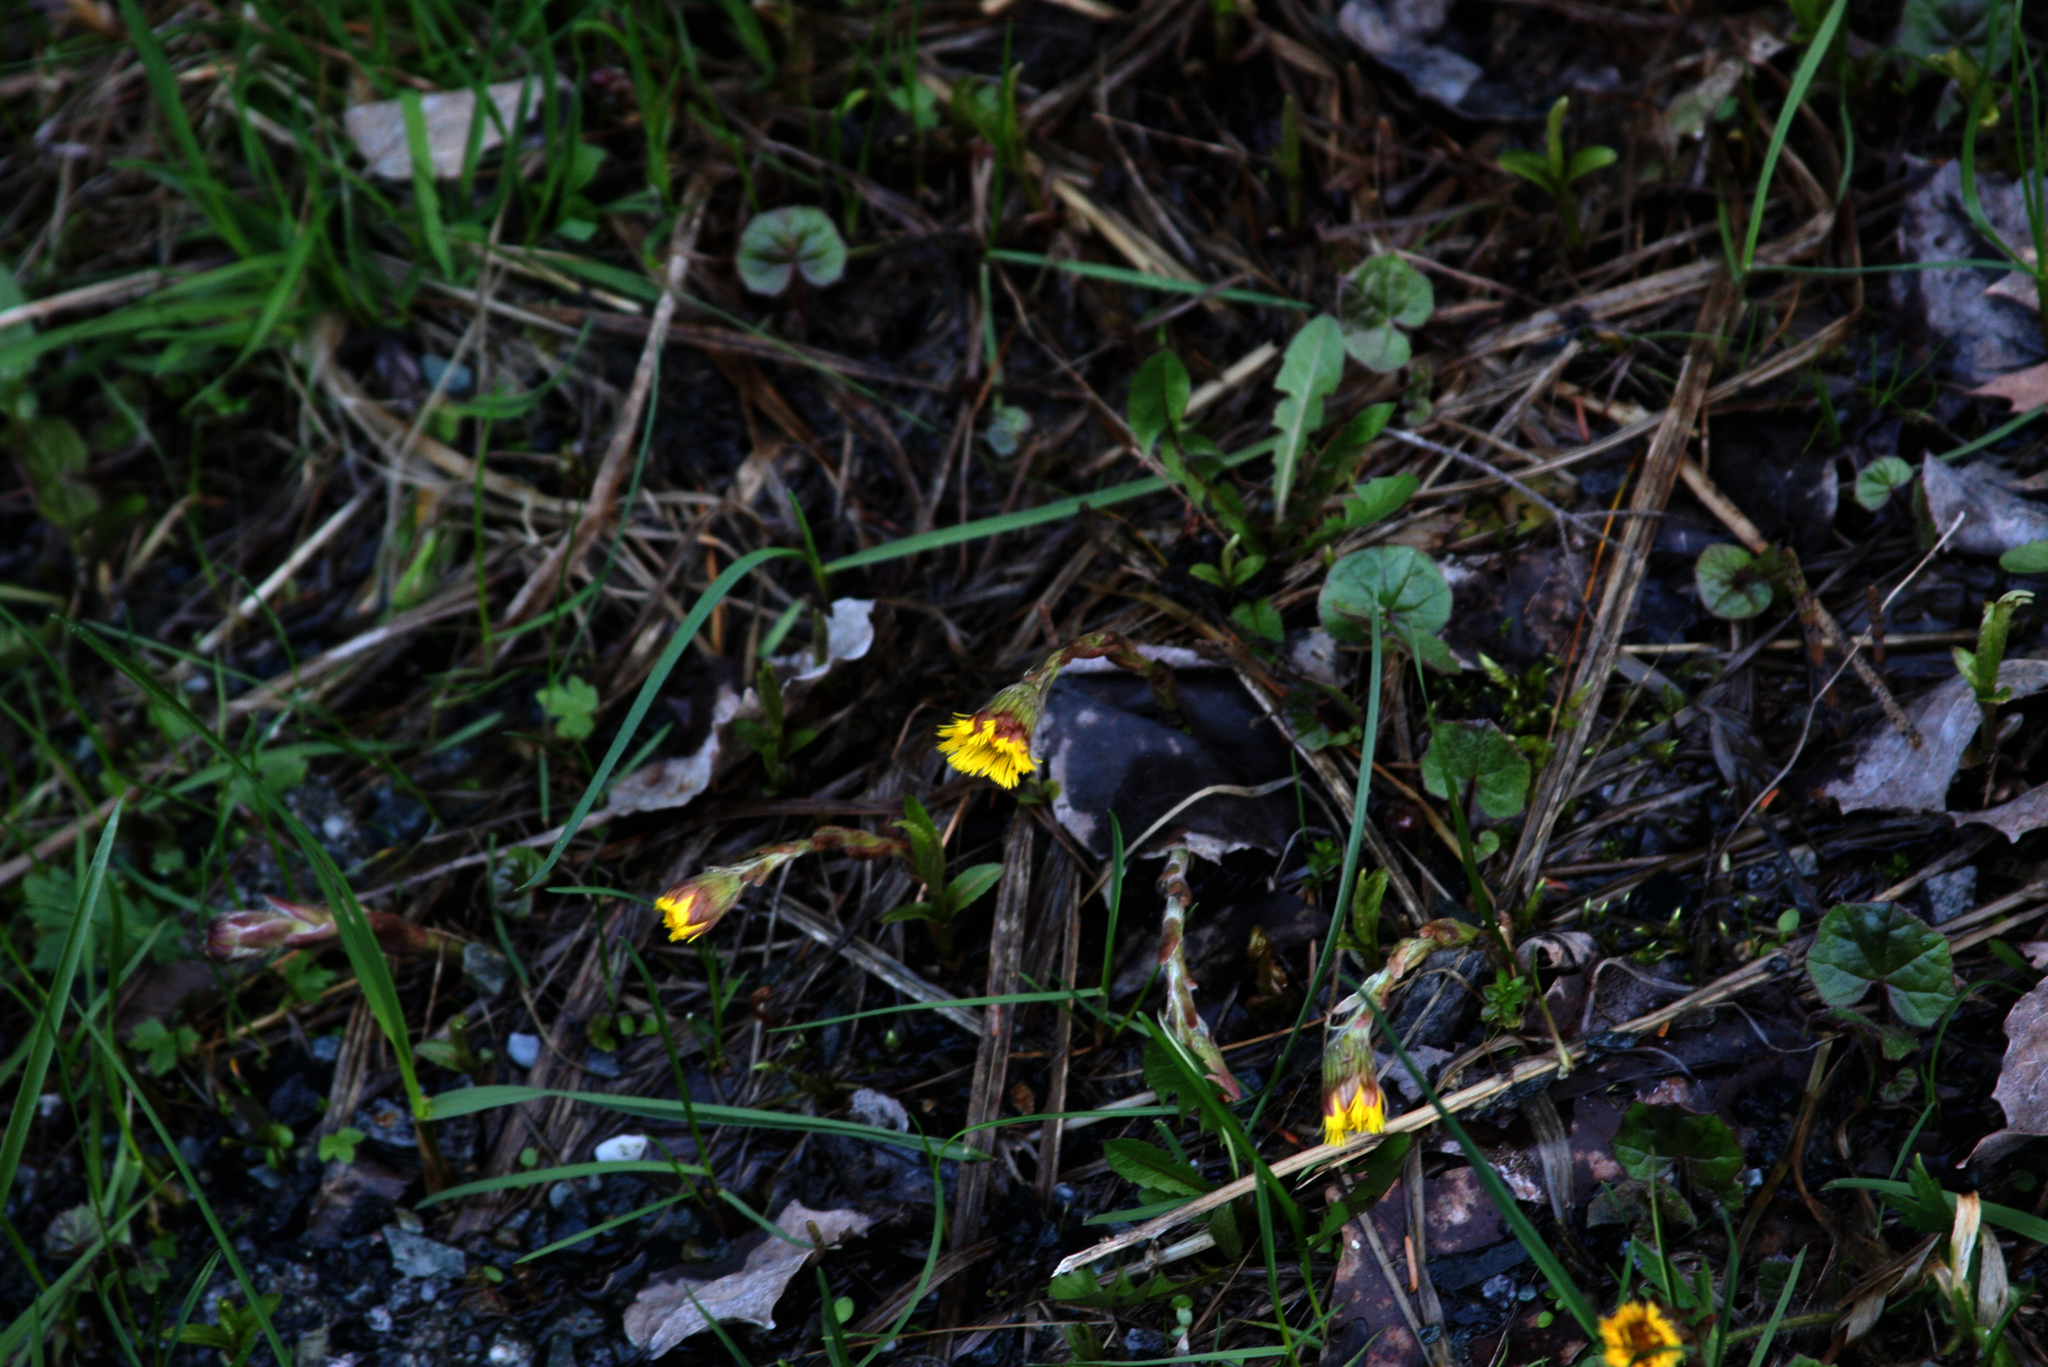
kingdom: Plantae
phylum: Tracheophyta
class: Magnoliopsida
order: Asterales
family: Asteraceae
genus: Tussilago
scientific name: Tussilago farfara
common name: Coltsfoot
